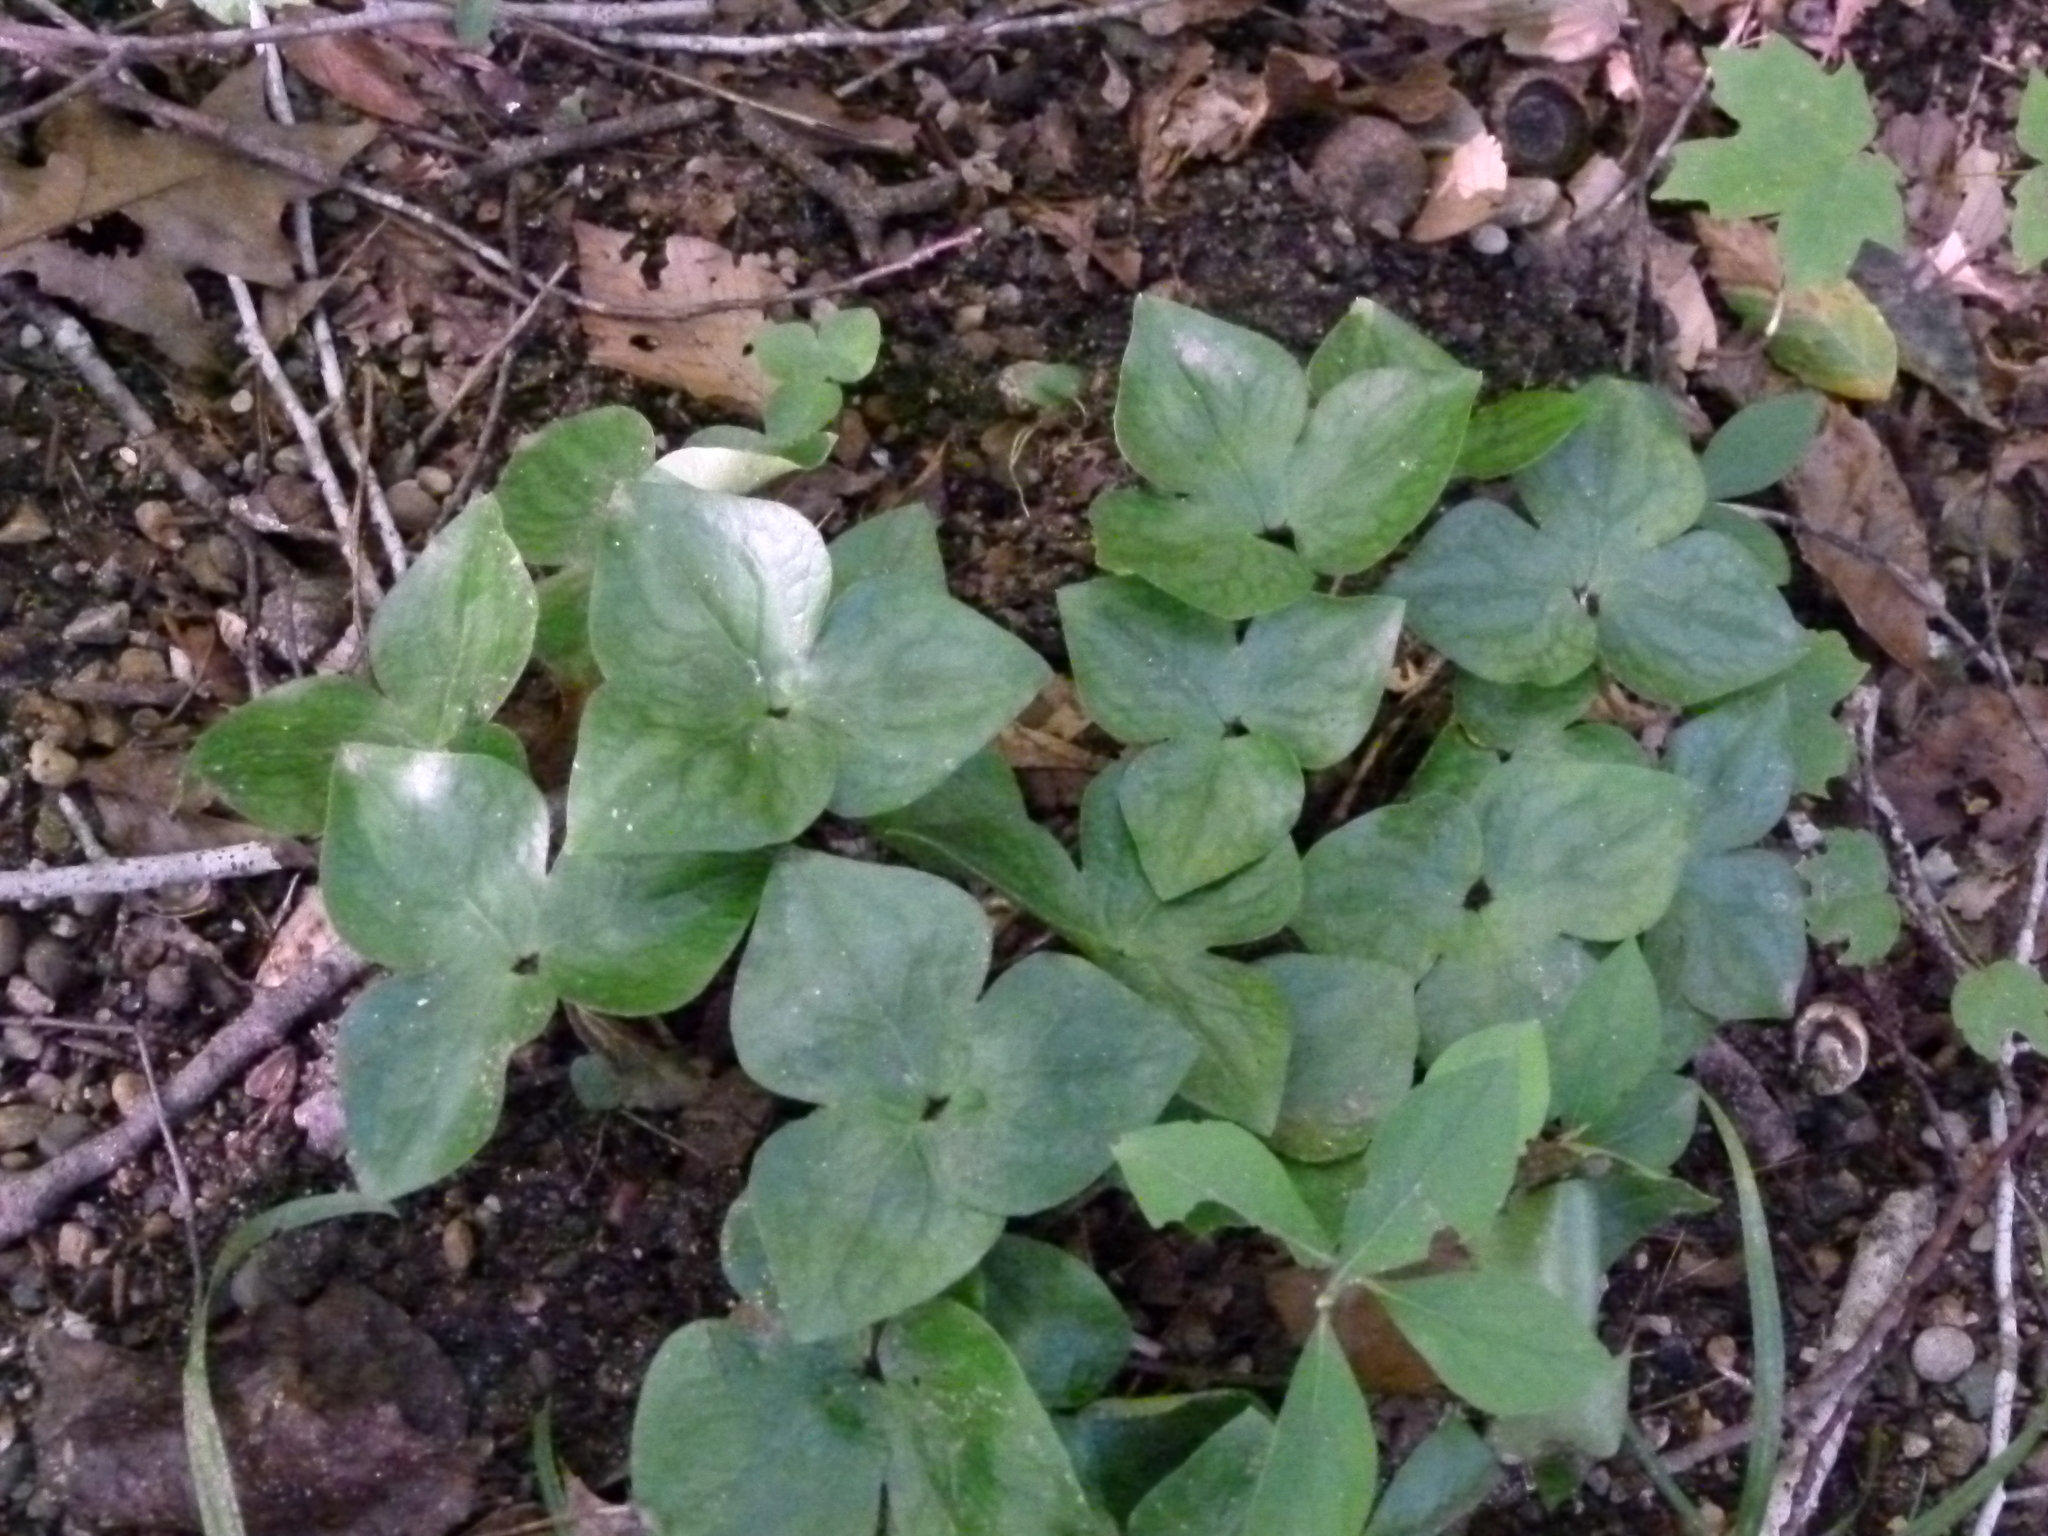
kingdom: Plantae
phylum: Tracheophyta
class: Magnoliopsida
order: Ranunculales
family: Ranunculaceae
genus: Hepatica
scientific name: Hepatica acutiloba
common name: Sharp-lobed hepatica
